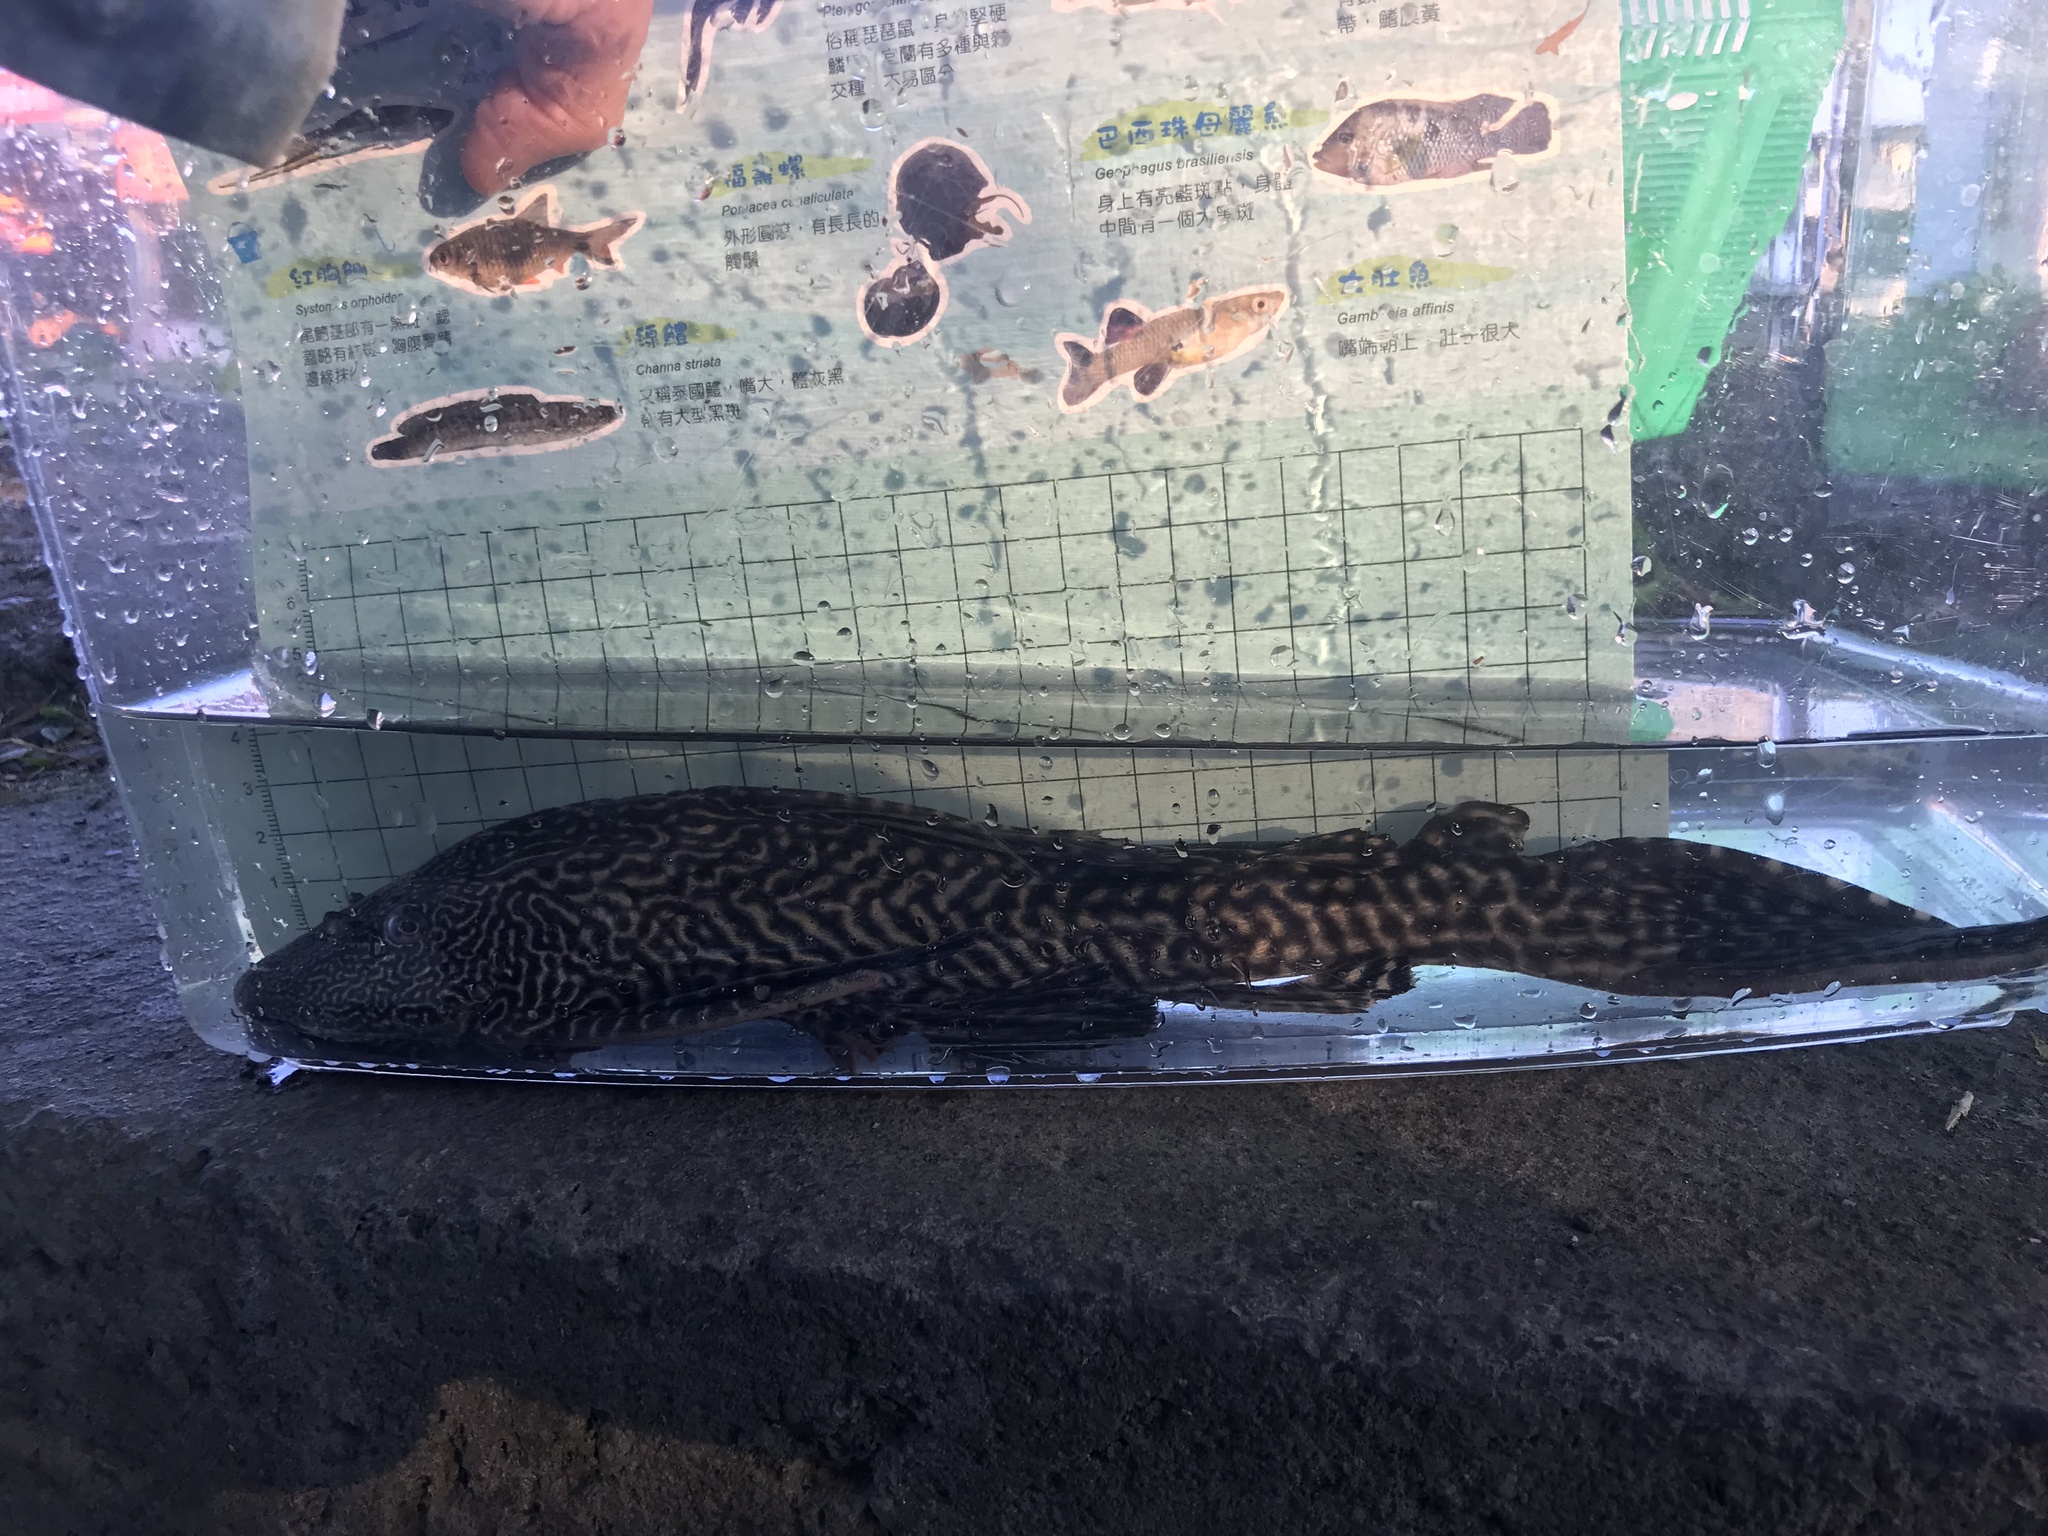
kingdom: Animalia
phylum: Chordata
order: Siluriformes
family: Loricariidae
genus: Pterygoplichthys
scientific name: Pterygoplichthys
